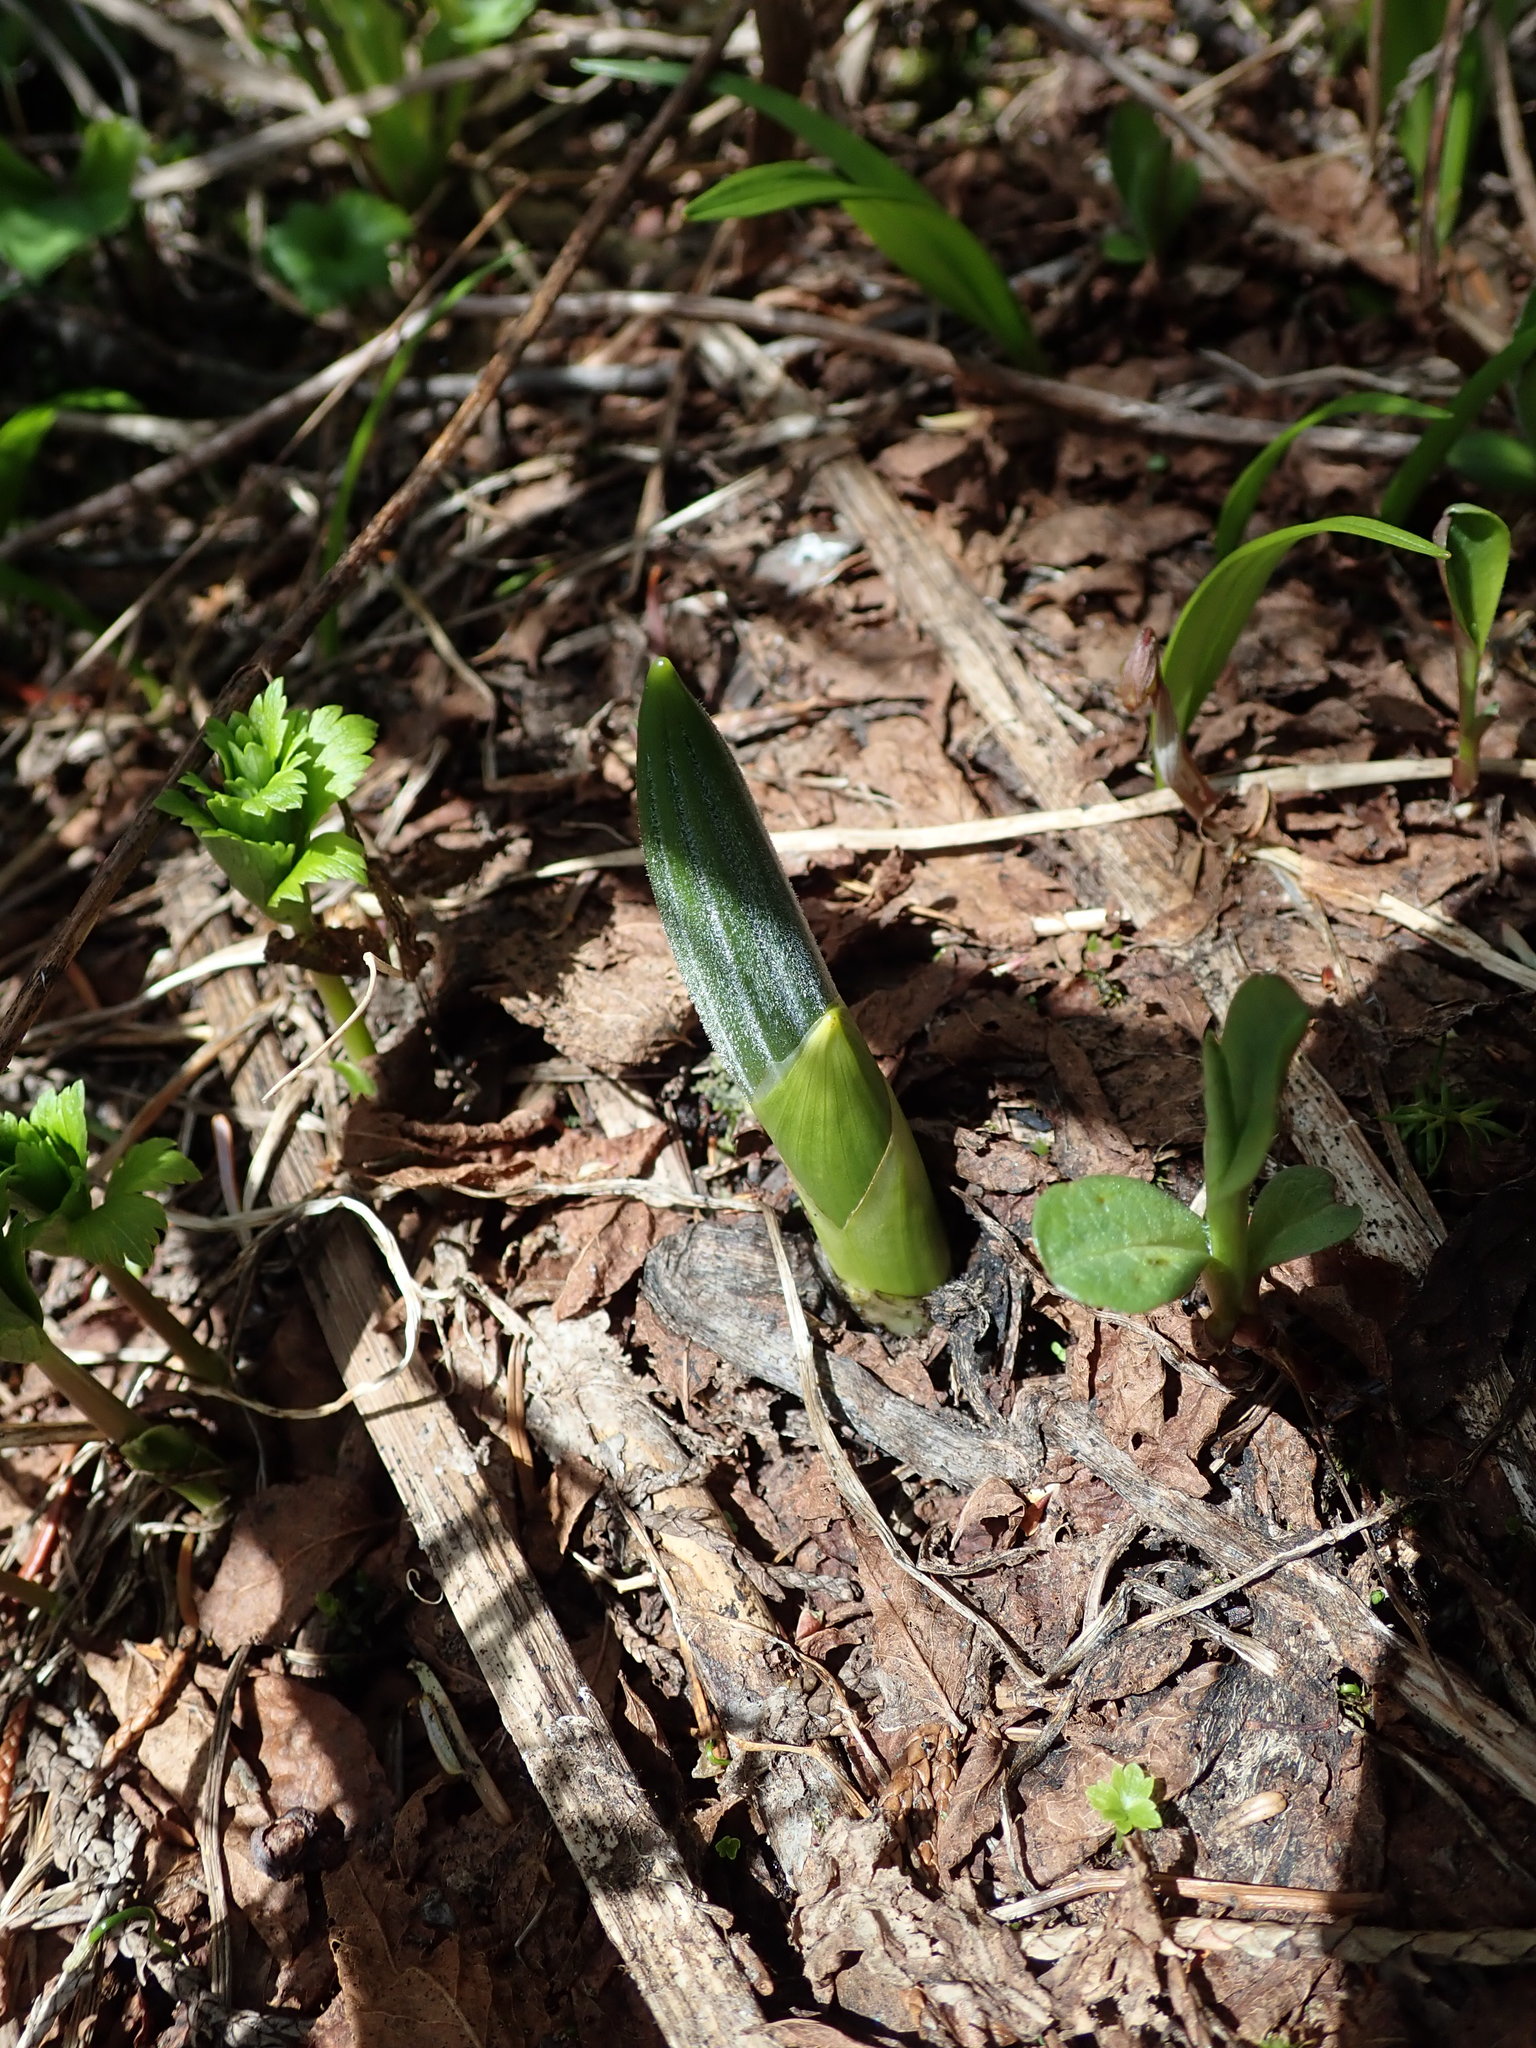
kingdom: Plantae
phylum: Tracheophyta
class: Liliopsida
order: Liliales
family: Melanthiaceae
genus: Veratrum
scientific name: Veratrum viride
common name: American false hellebore
